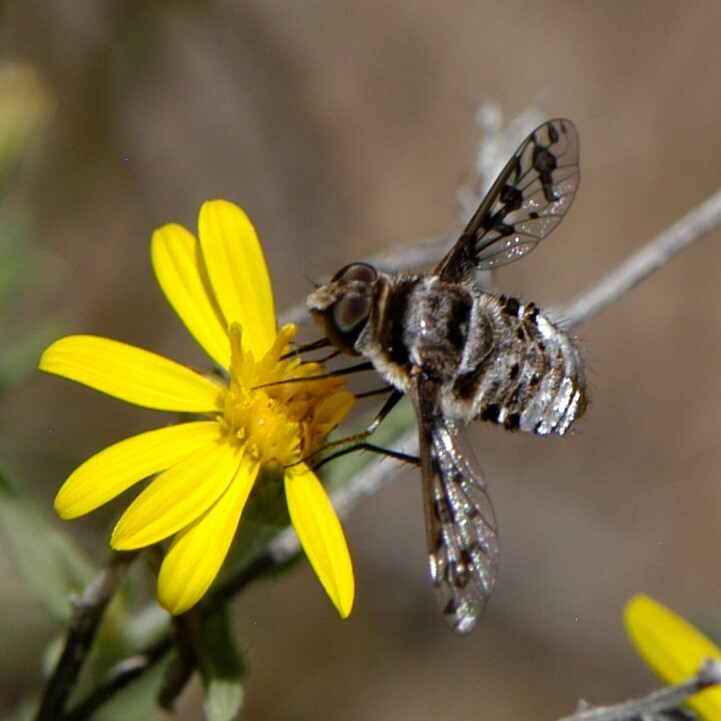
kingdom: Animalia
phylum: Arthropoda
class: Insecta
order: Diptera
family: Bombyliidae
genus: Lepidanthrax
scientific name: Lepidanthrax
